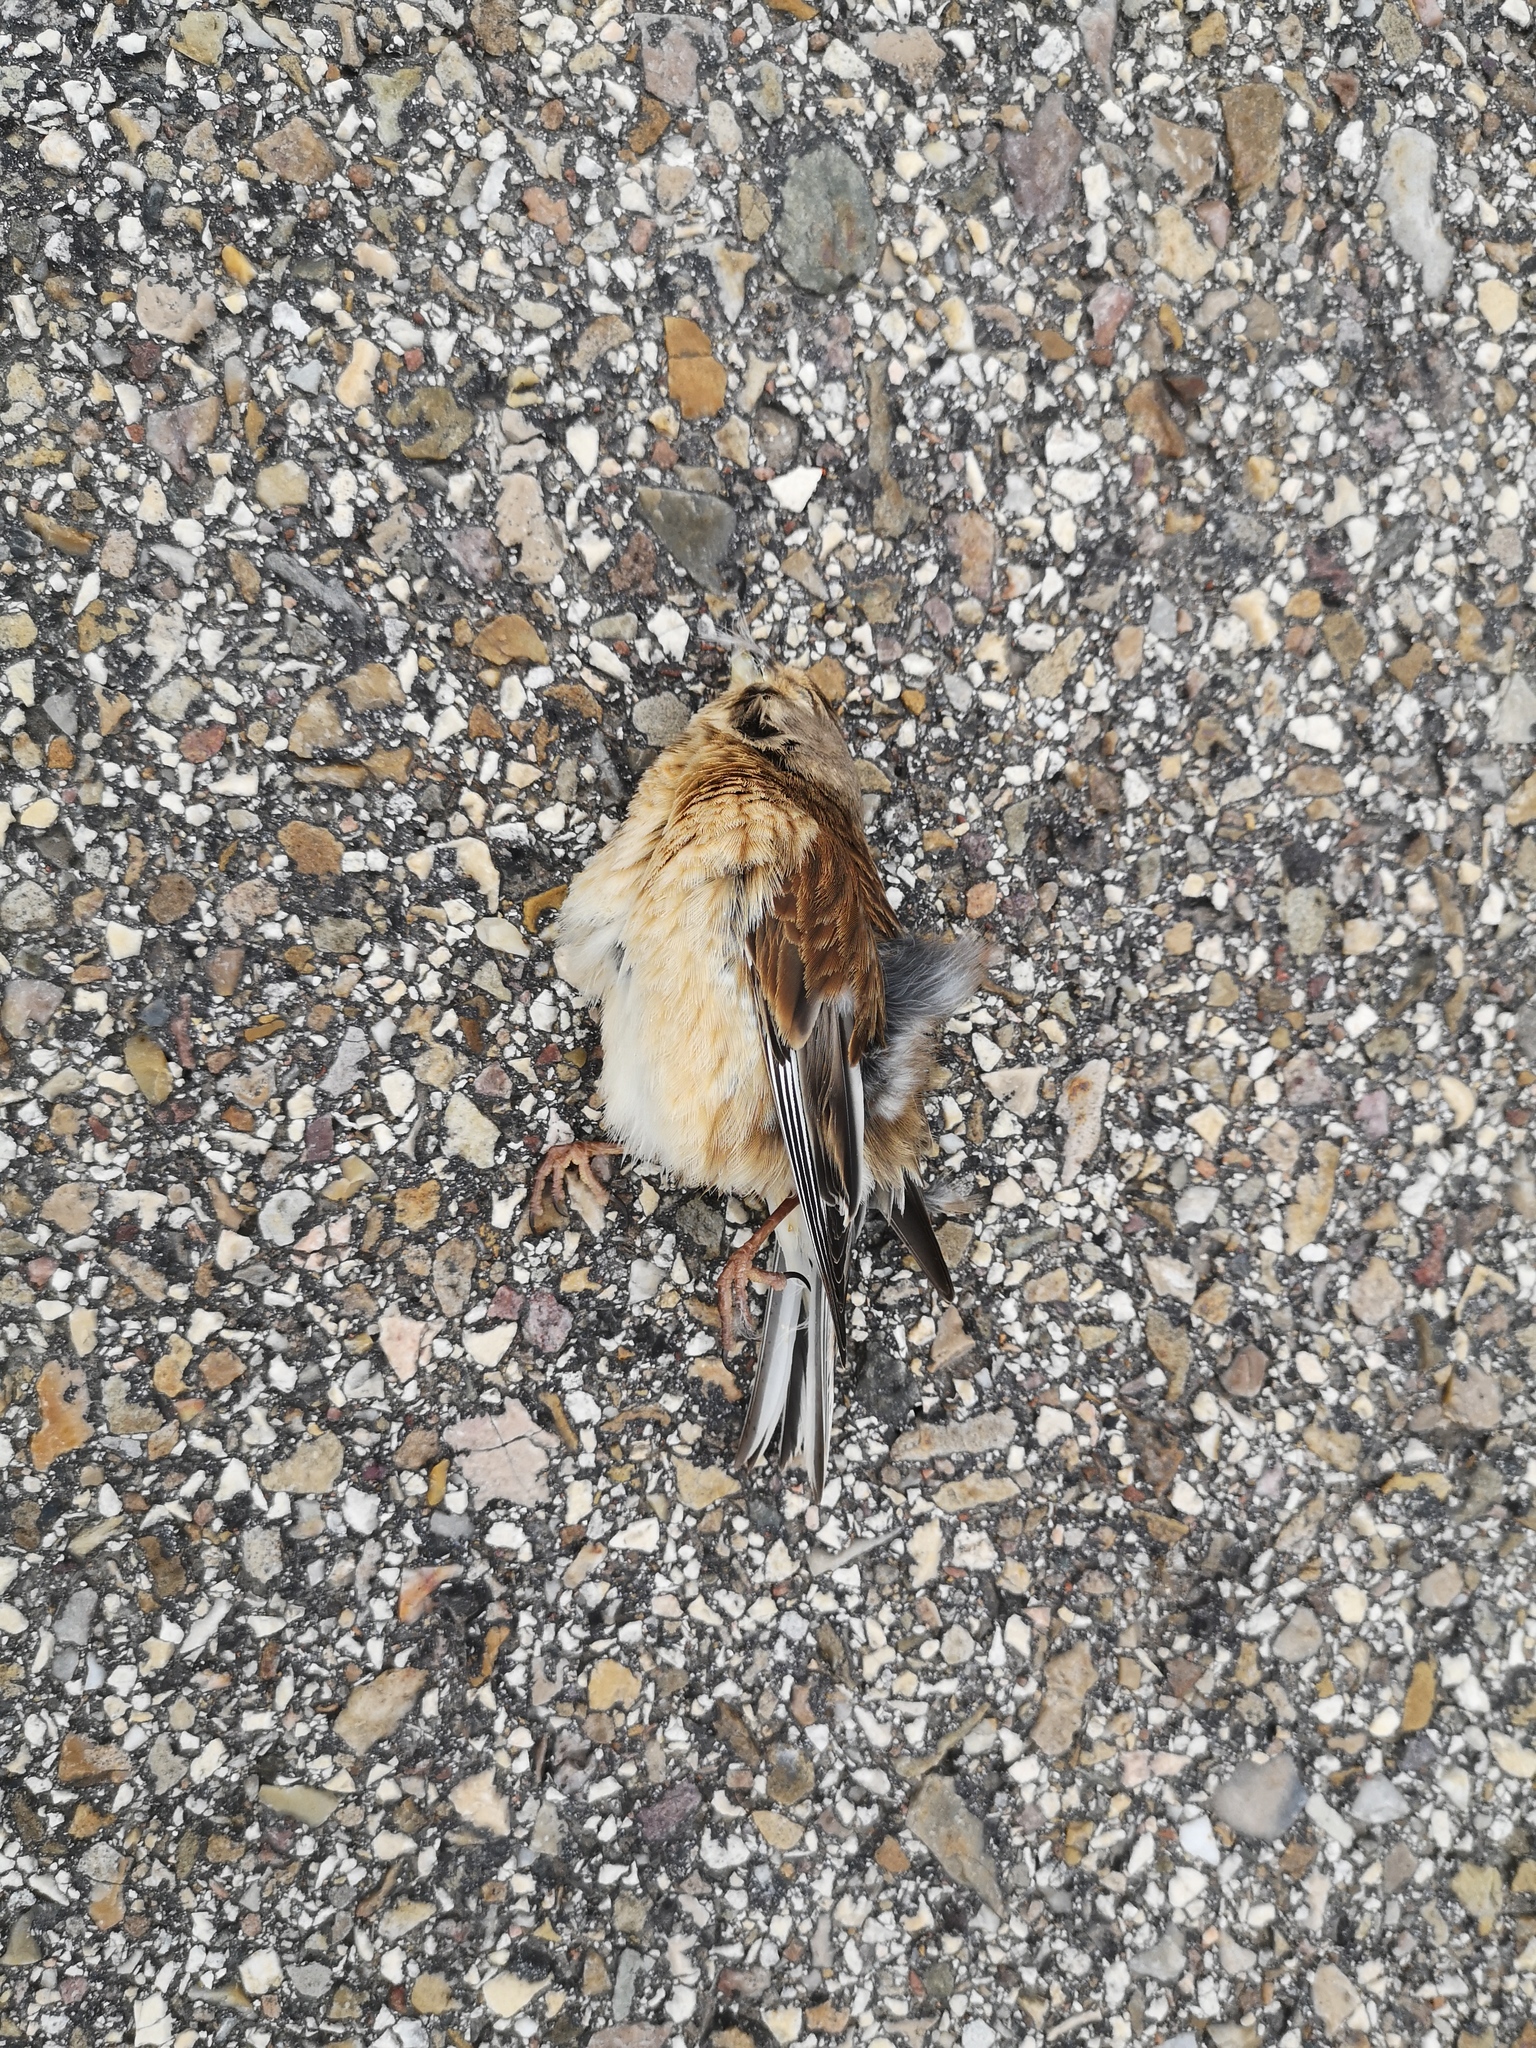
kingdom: Animalia
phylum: Chordata
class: Aves
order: Passeriformes
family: Fringillidae
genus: Linaria
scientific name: Linaria cannabina
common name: Common linnet
